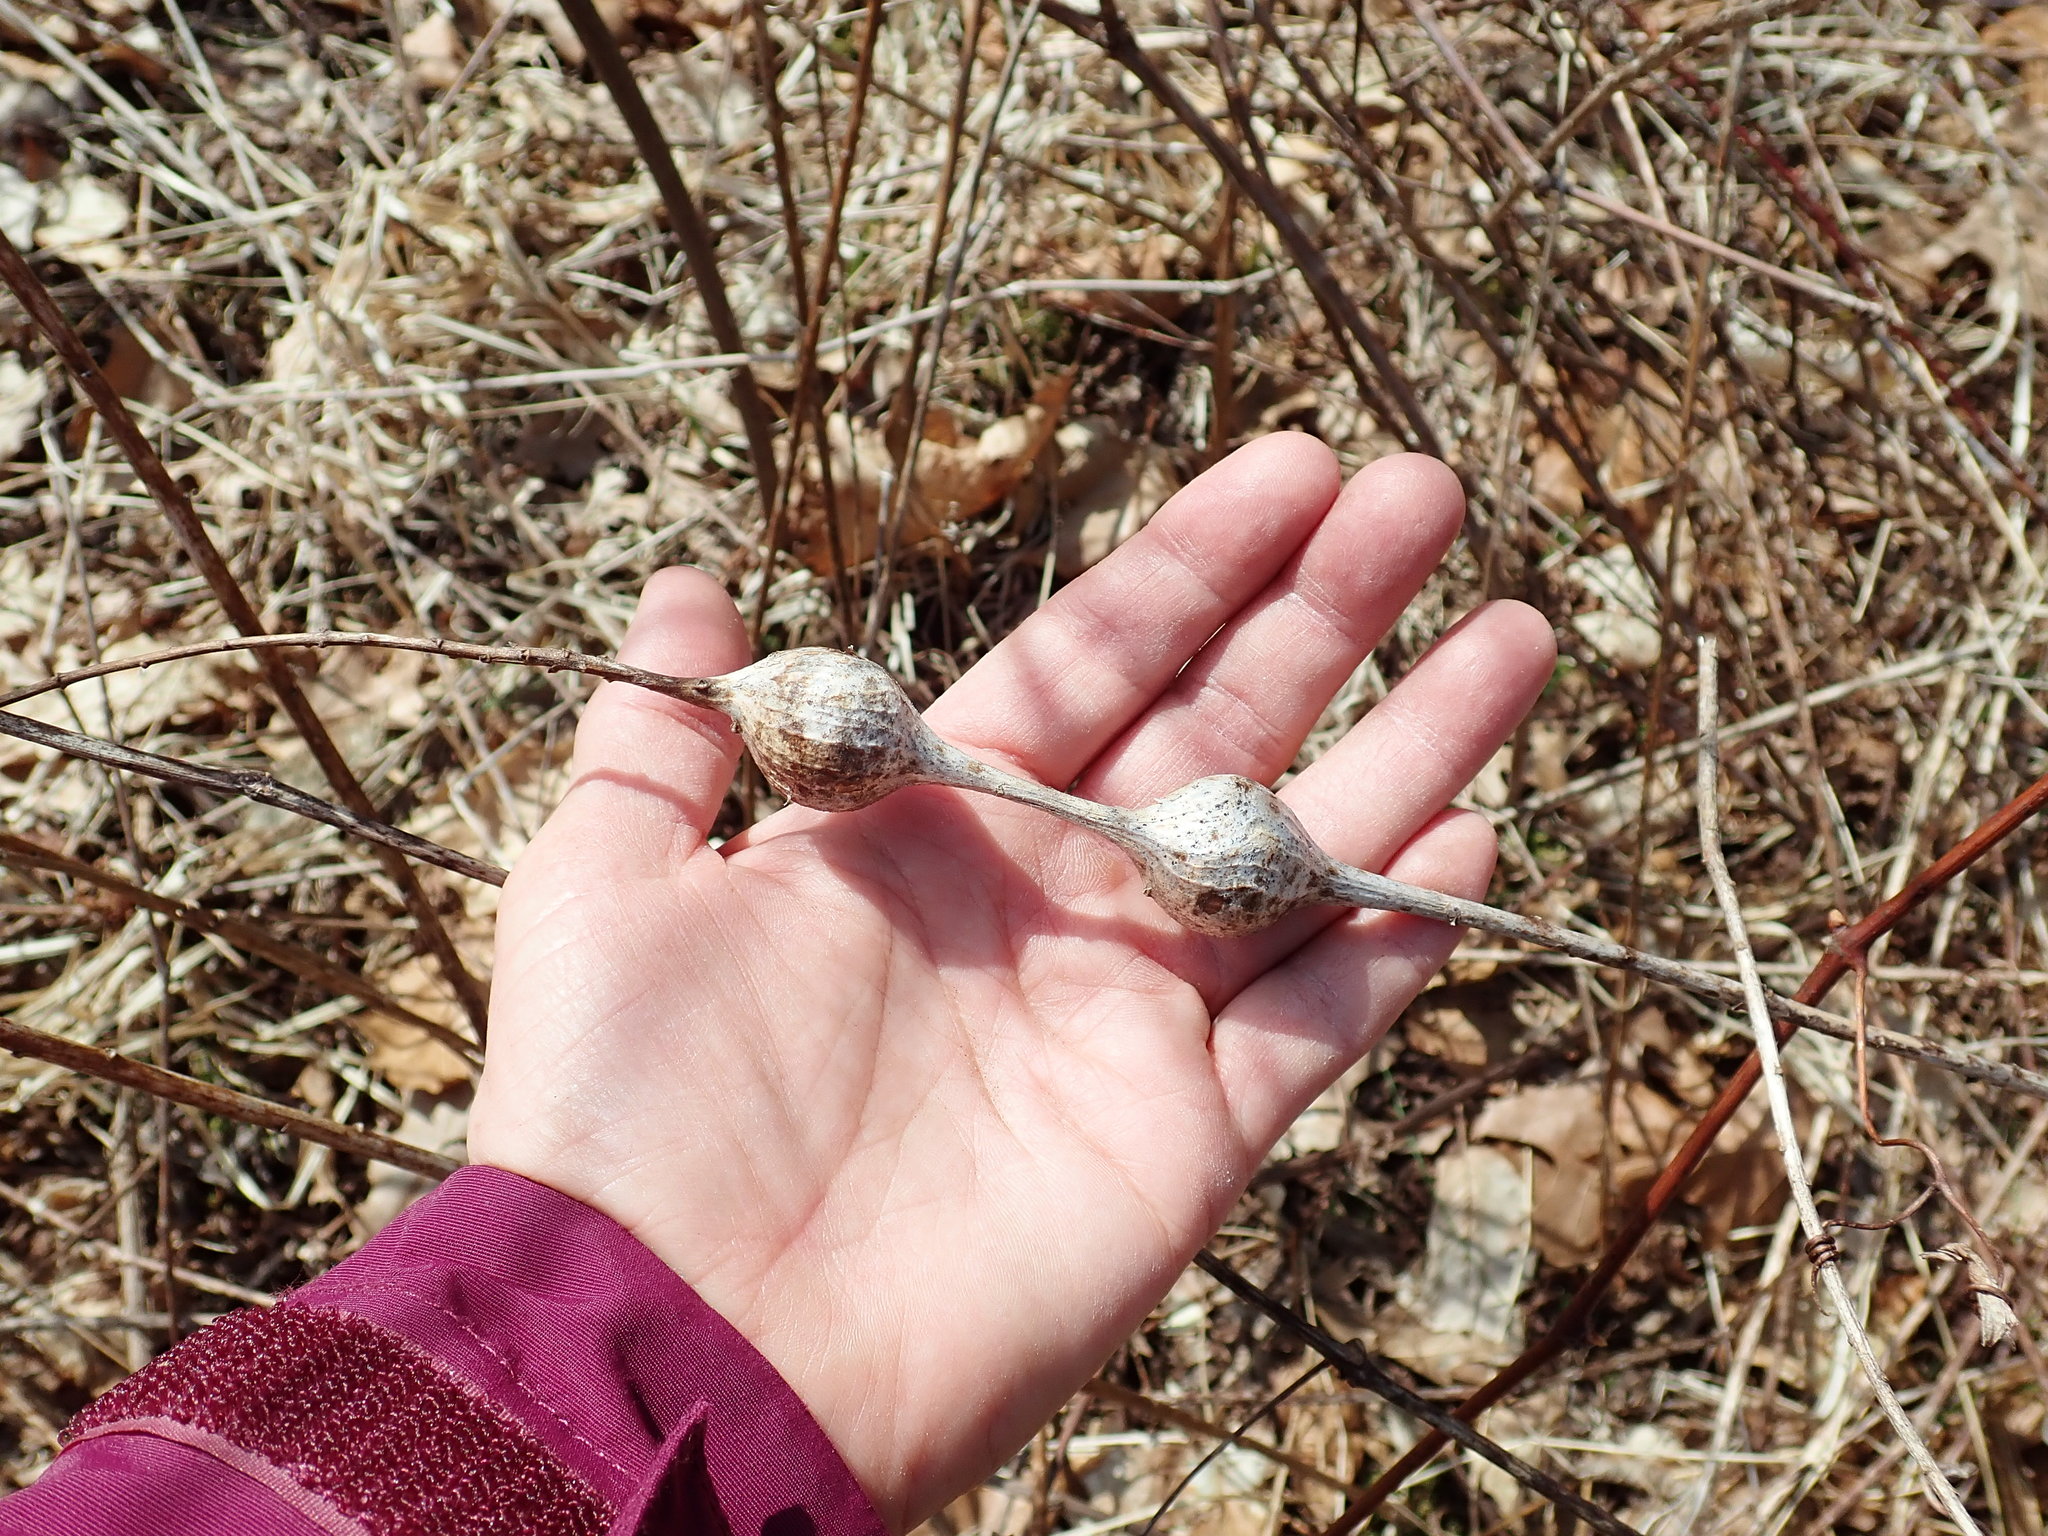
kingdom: Animalia
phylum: Arthropoda
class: Insecta
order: Diptera
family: Tephritidae
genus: Eurosta
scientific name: Eurosta solidaginis
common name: Goldenrod gall fly
